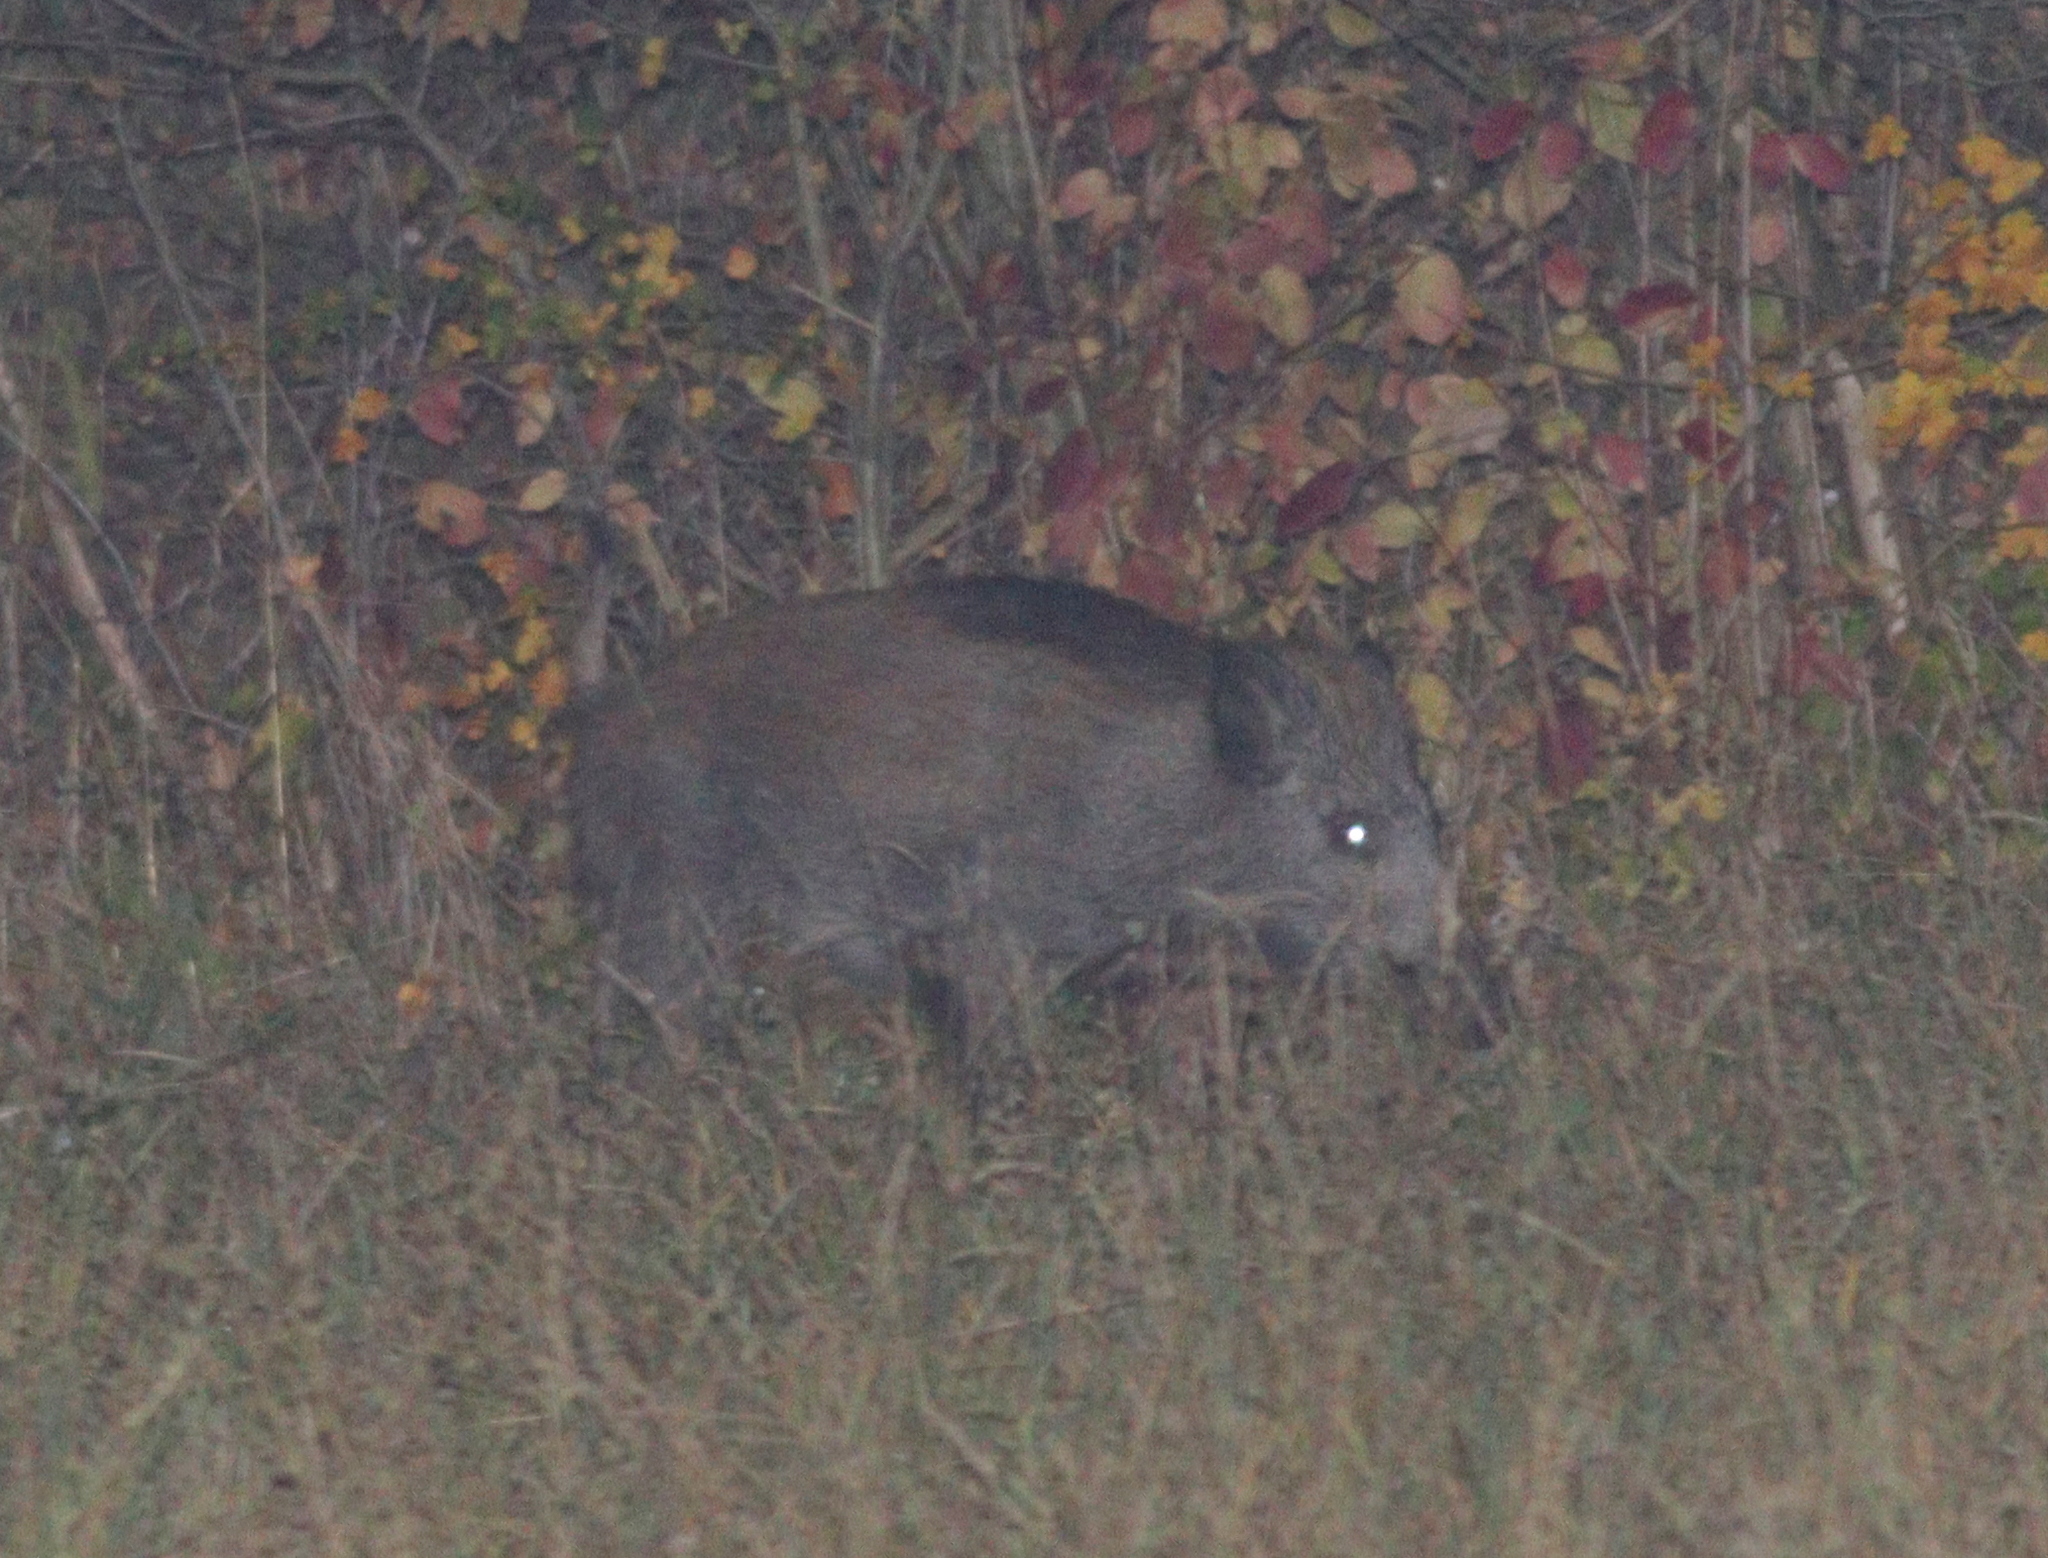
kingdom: Animalia
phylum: Chordata
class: Mammalia
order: Artiodactyla
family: Suidae
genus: Sus
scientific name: Sus scrofa
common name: Wild boar
